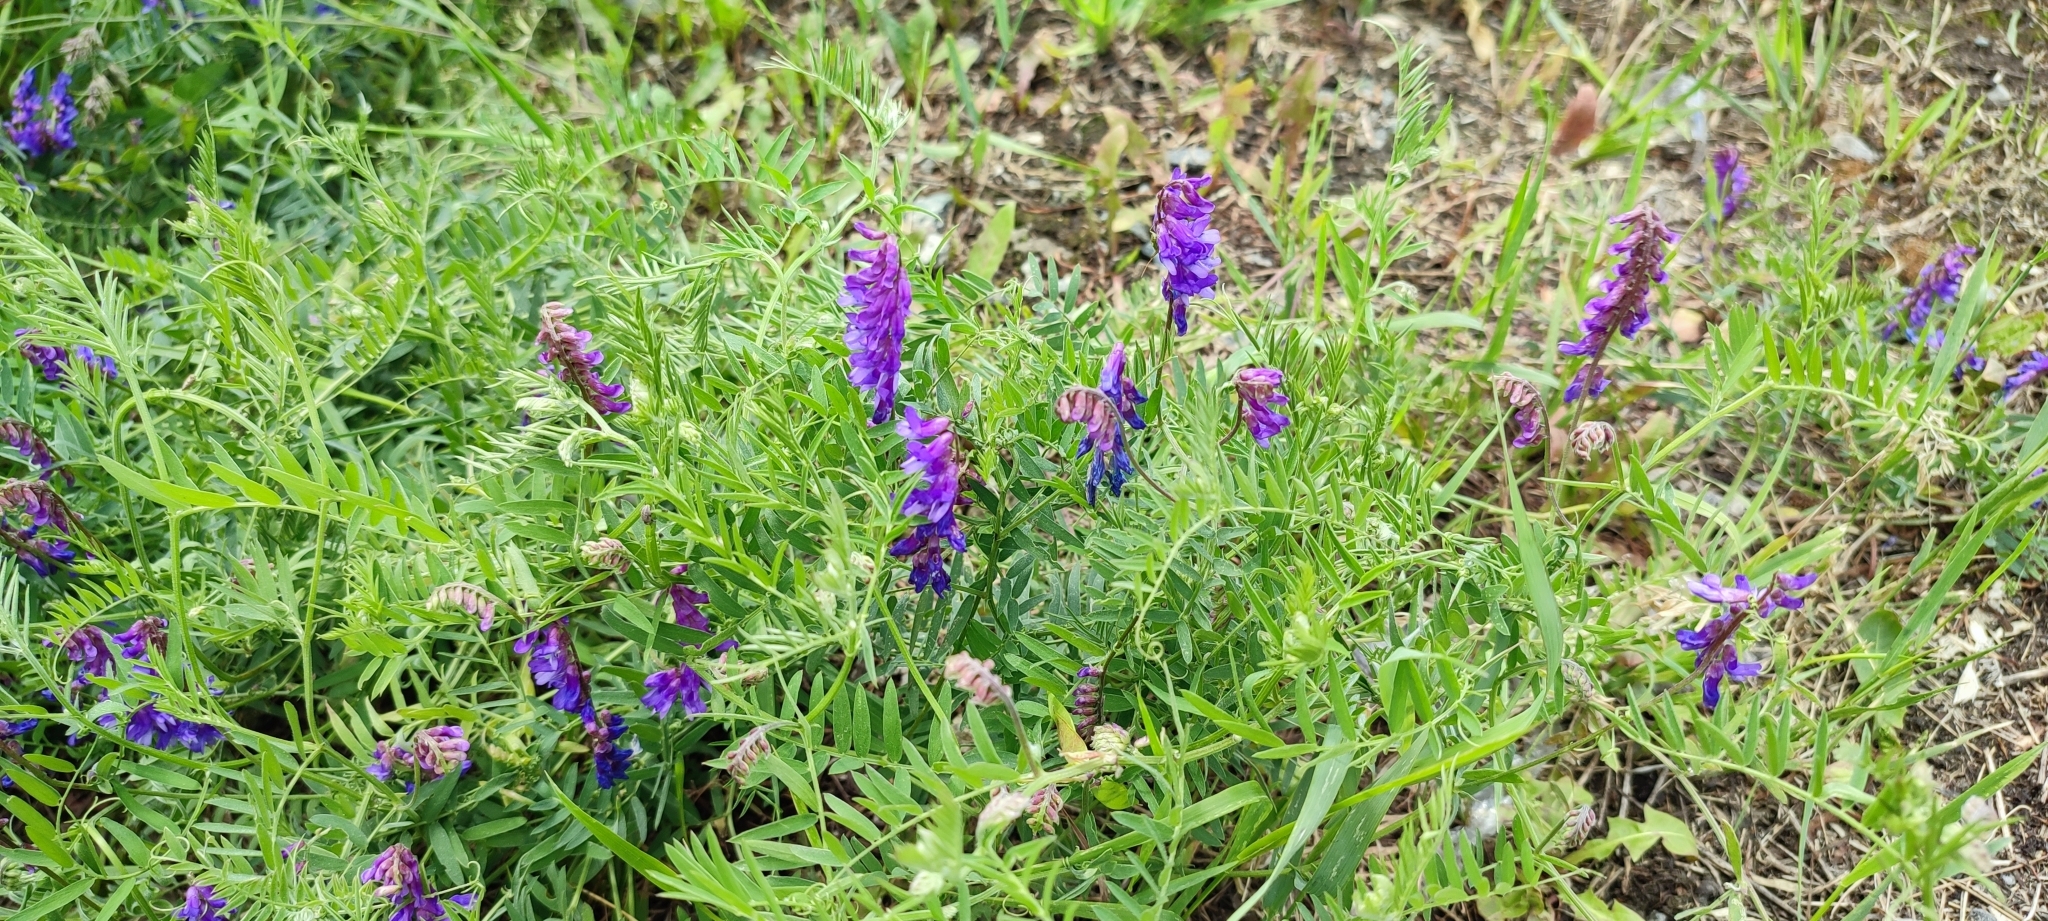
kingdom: Plantae
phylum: Tracheophyta
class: Magnoliopsida
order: Fabales
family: Fabaceae
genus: Vicia
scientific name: Vicia cracca
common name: Bird vetch
